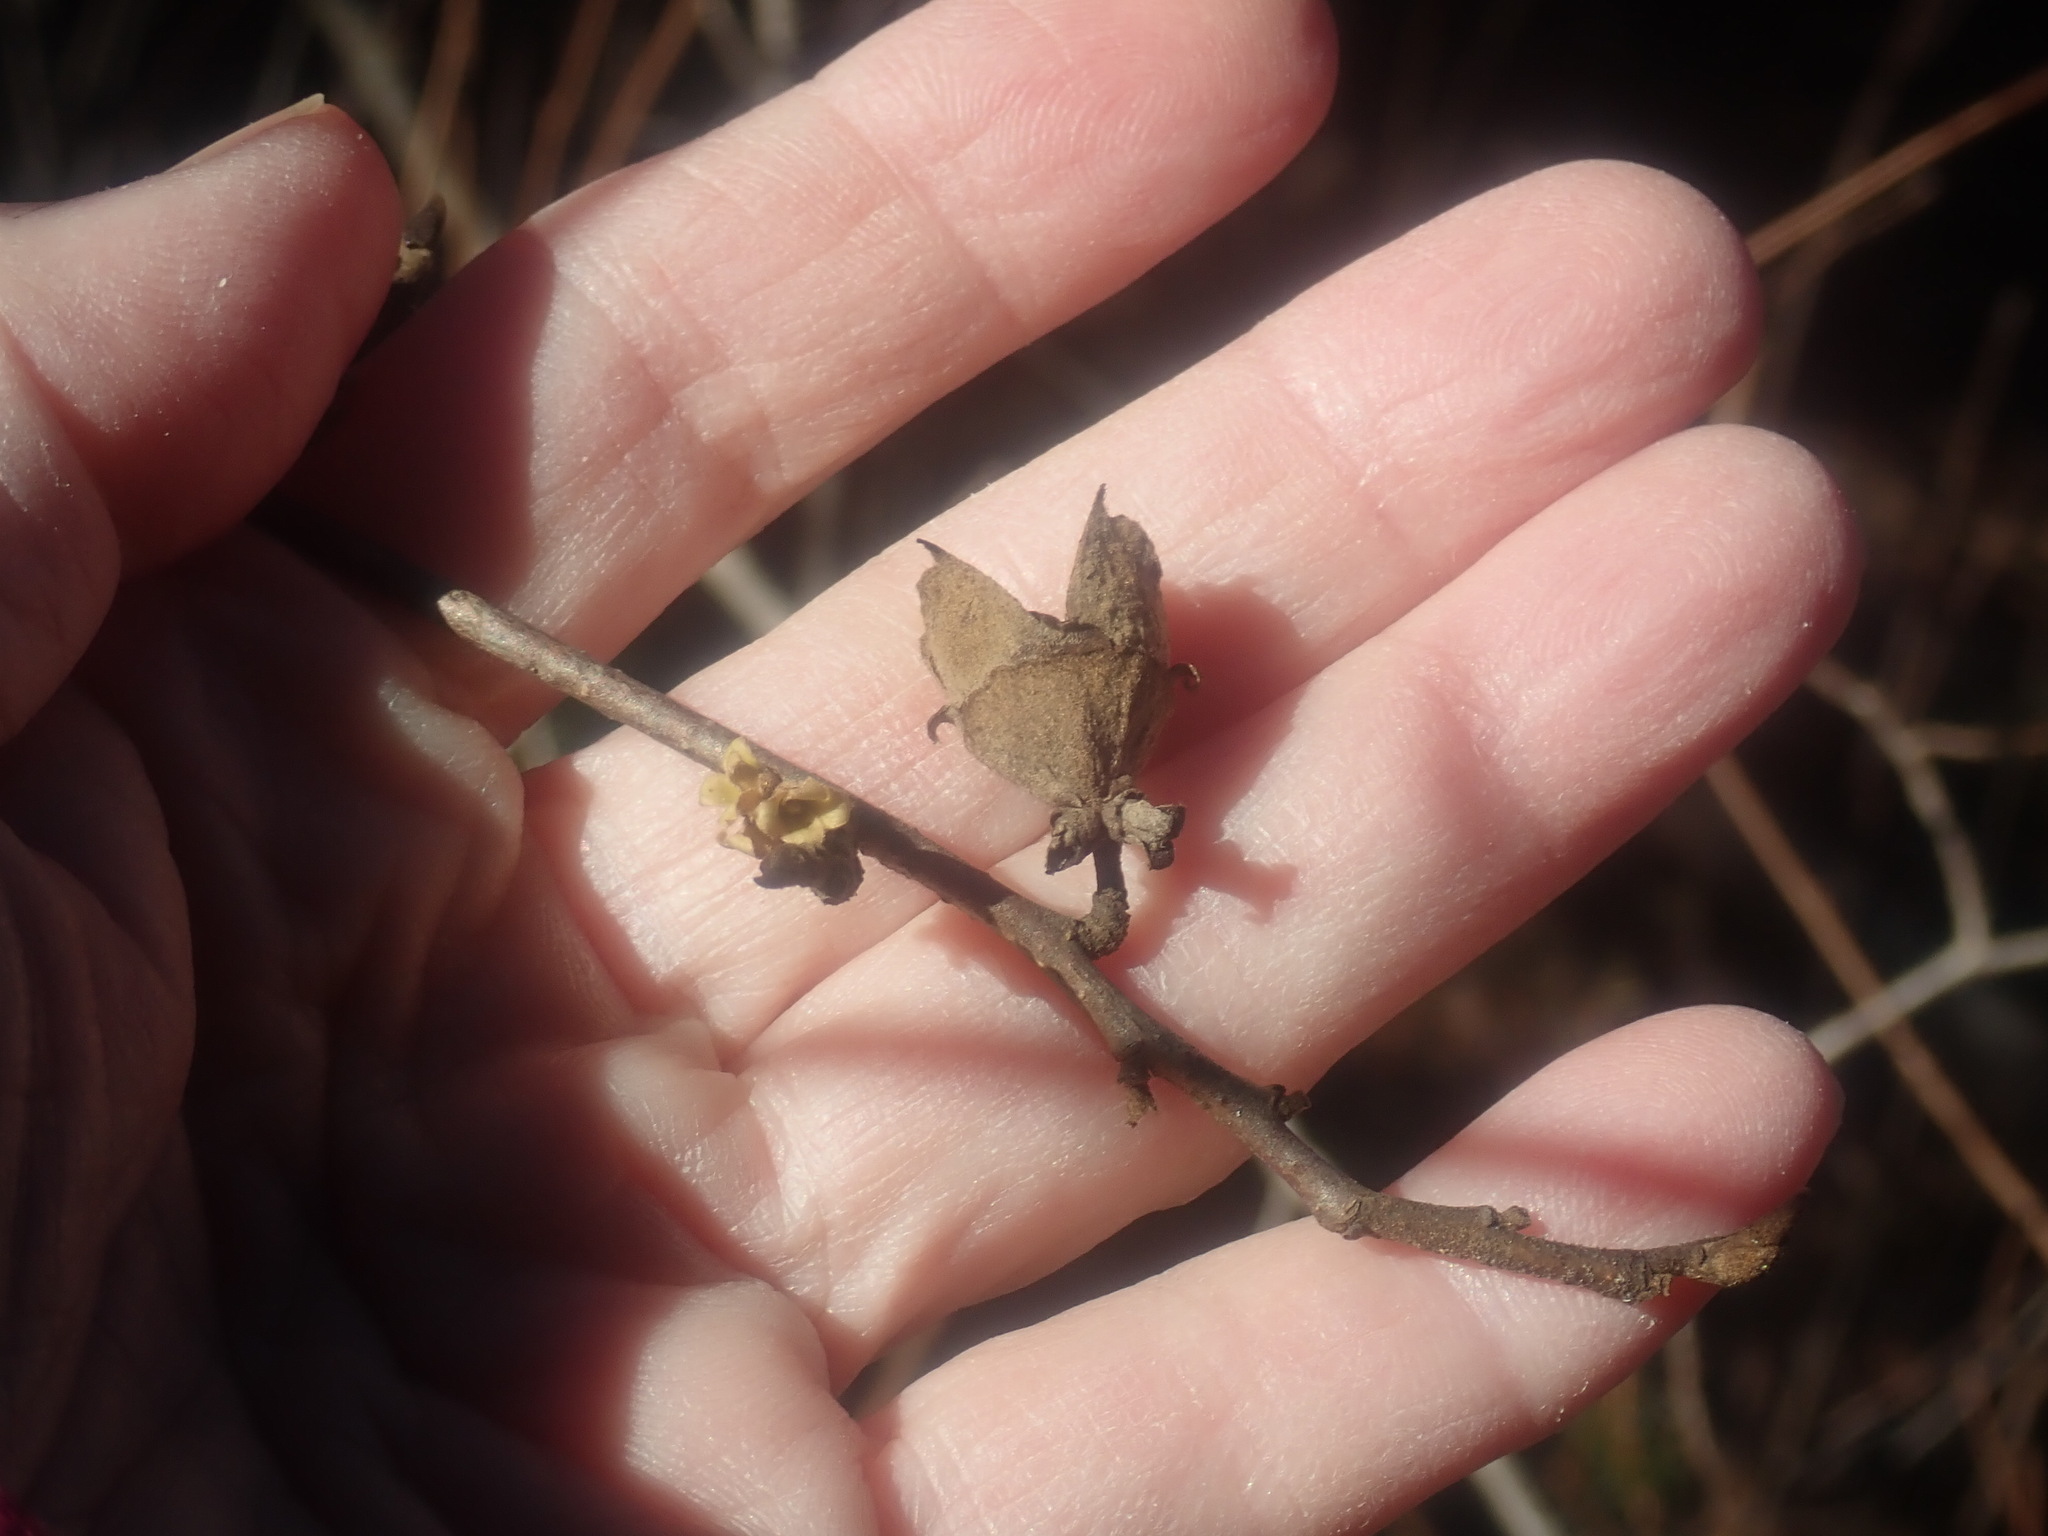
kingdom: Plantae
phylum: Tracheophyta
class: Magnoliopsida
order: Saxifragales
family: Hamamelidaceae
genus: Hamamelis
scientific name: Hamamelis virginiana
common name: Witch-hazel
